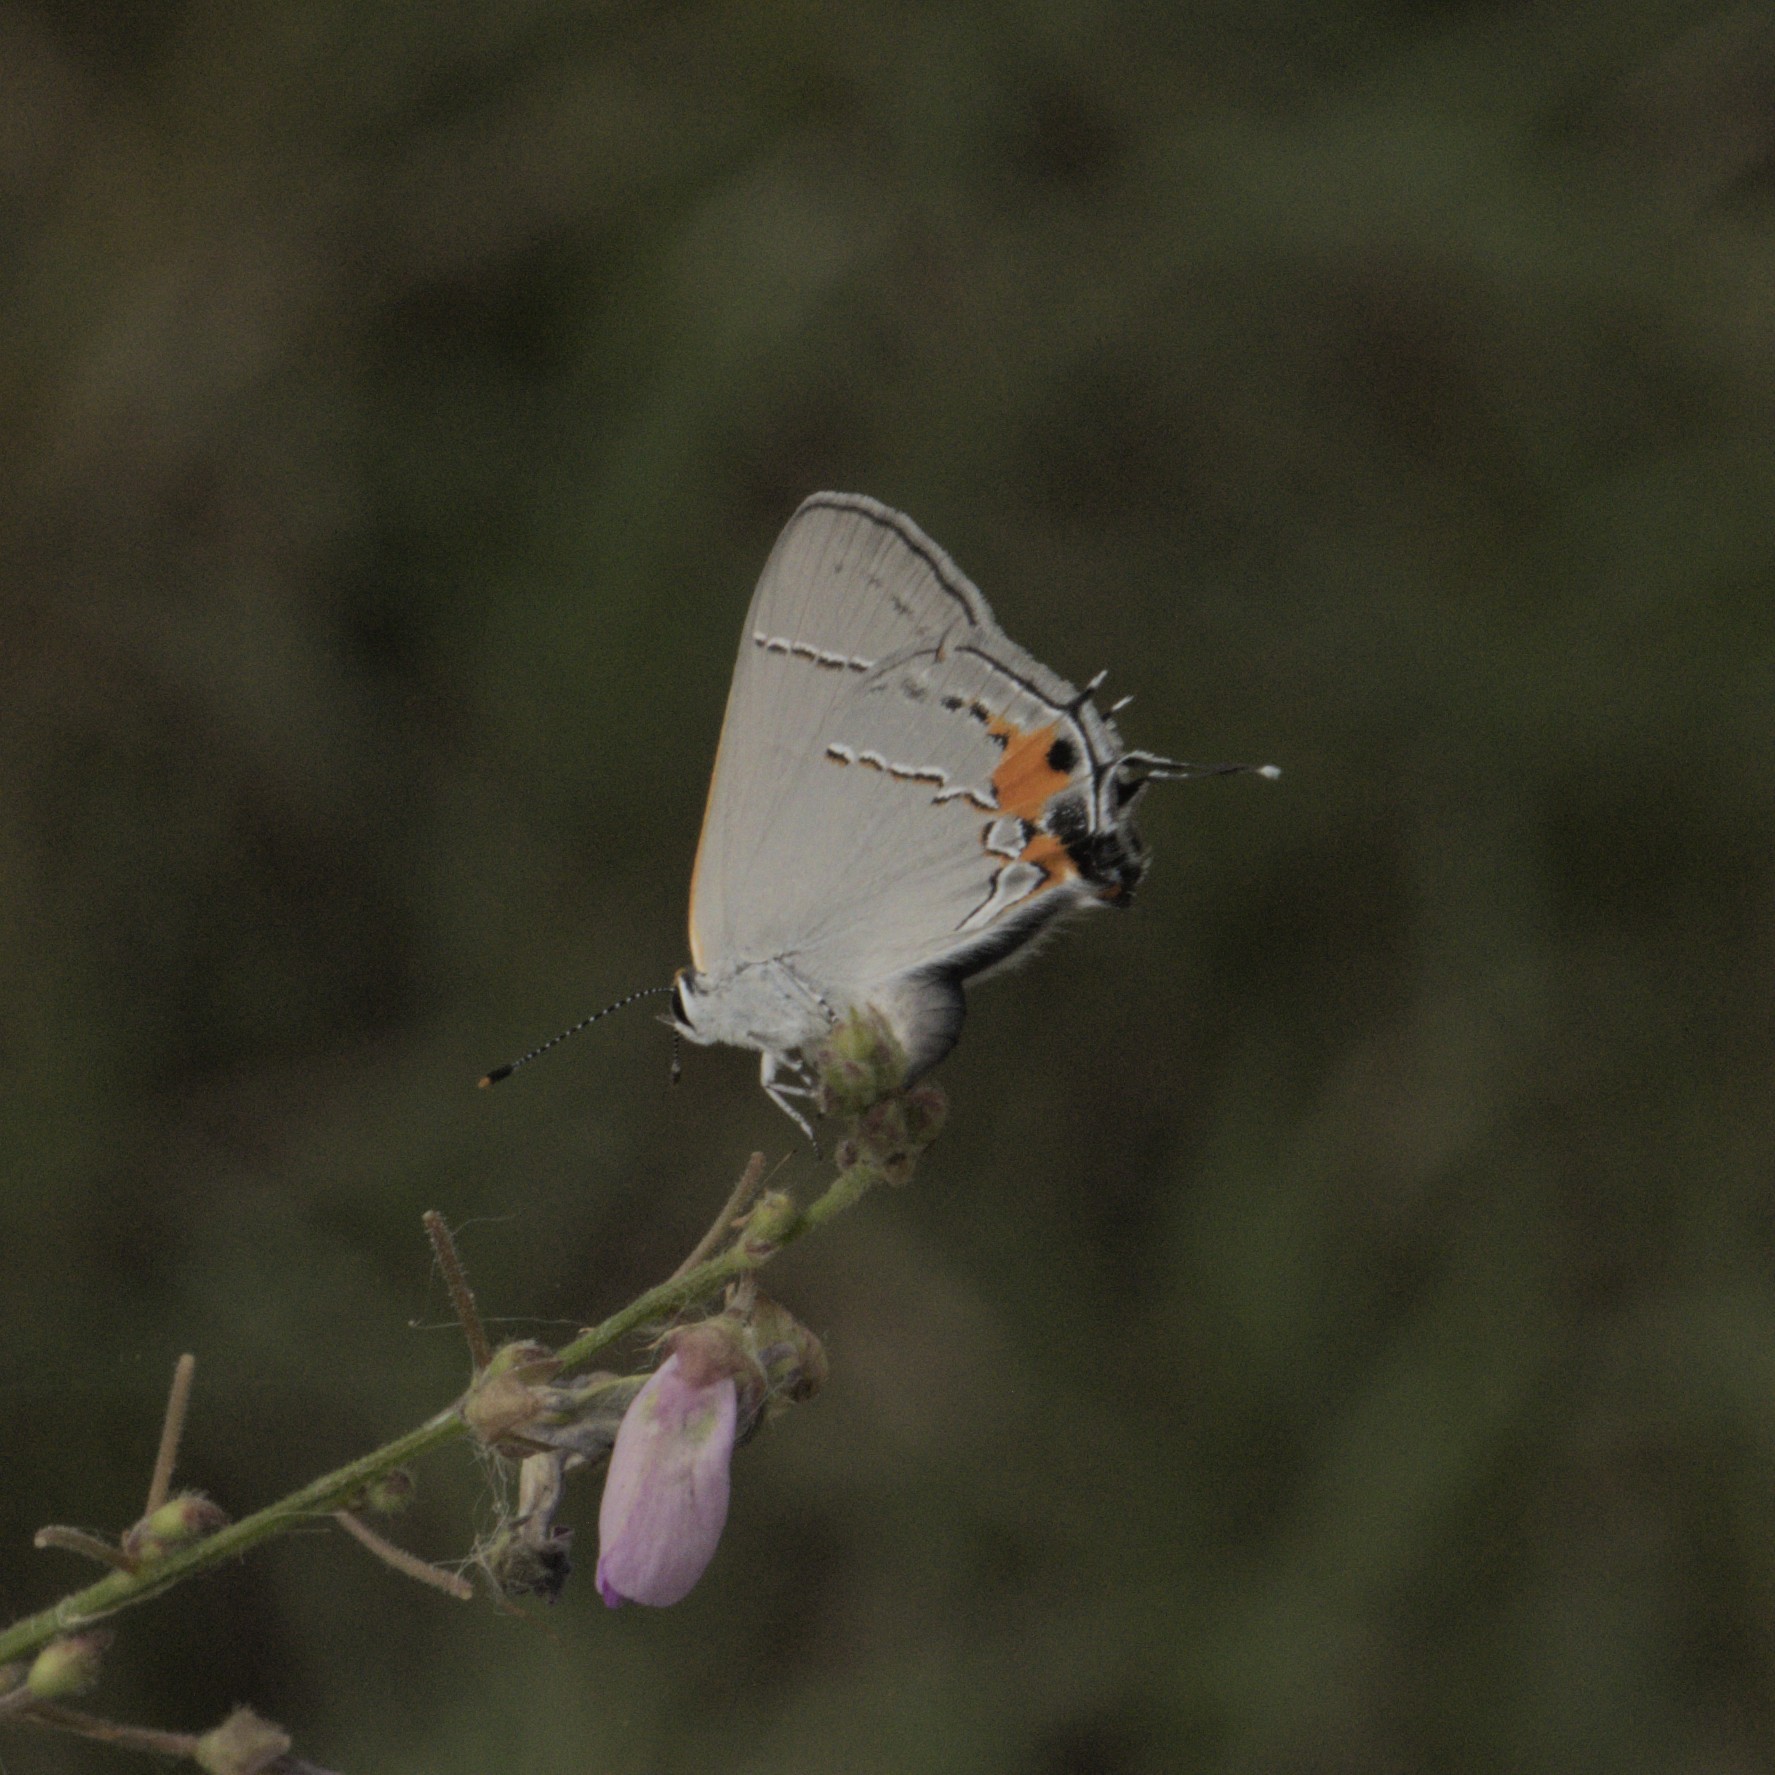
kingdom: Animalia
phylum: Arthropoda
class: Insecta
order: Lepidoptera
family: Lycaenidae
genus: Strymon
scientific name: Strymon melinus
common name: Gray hairstreak
